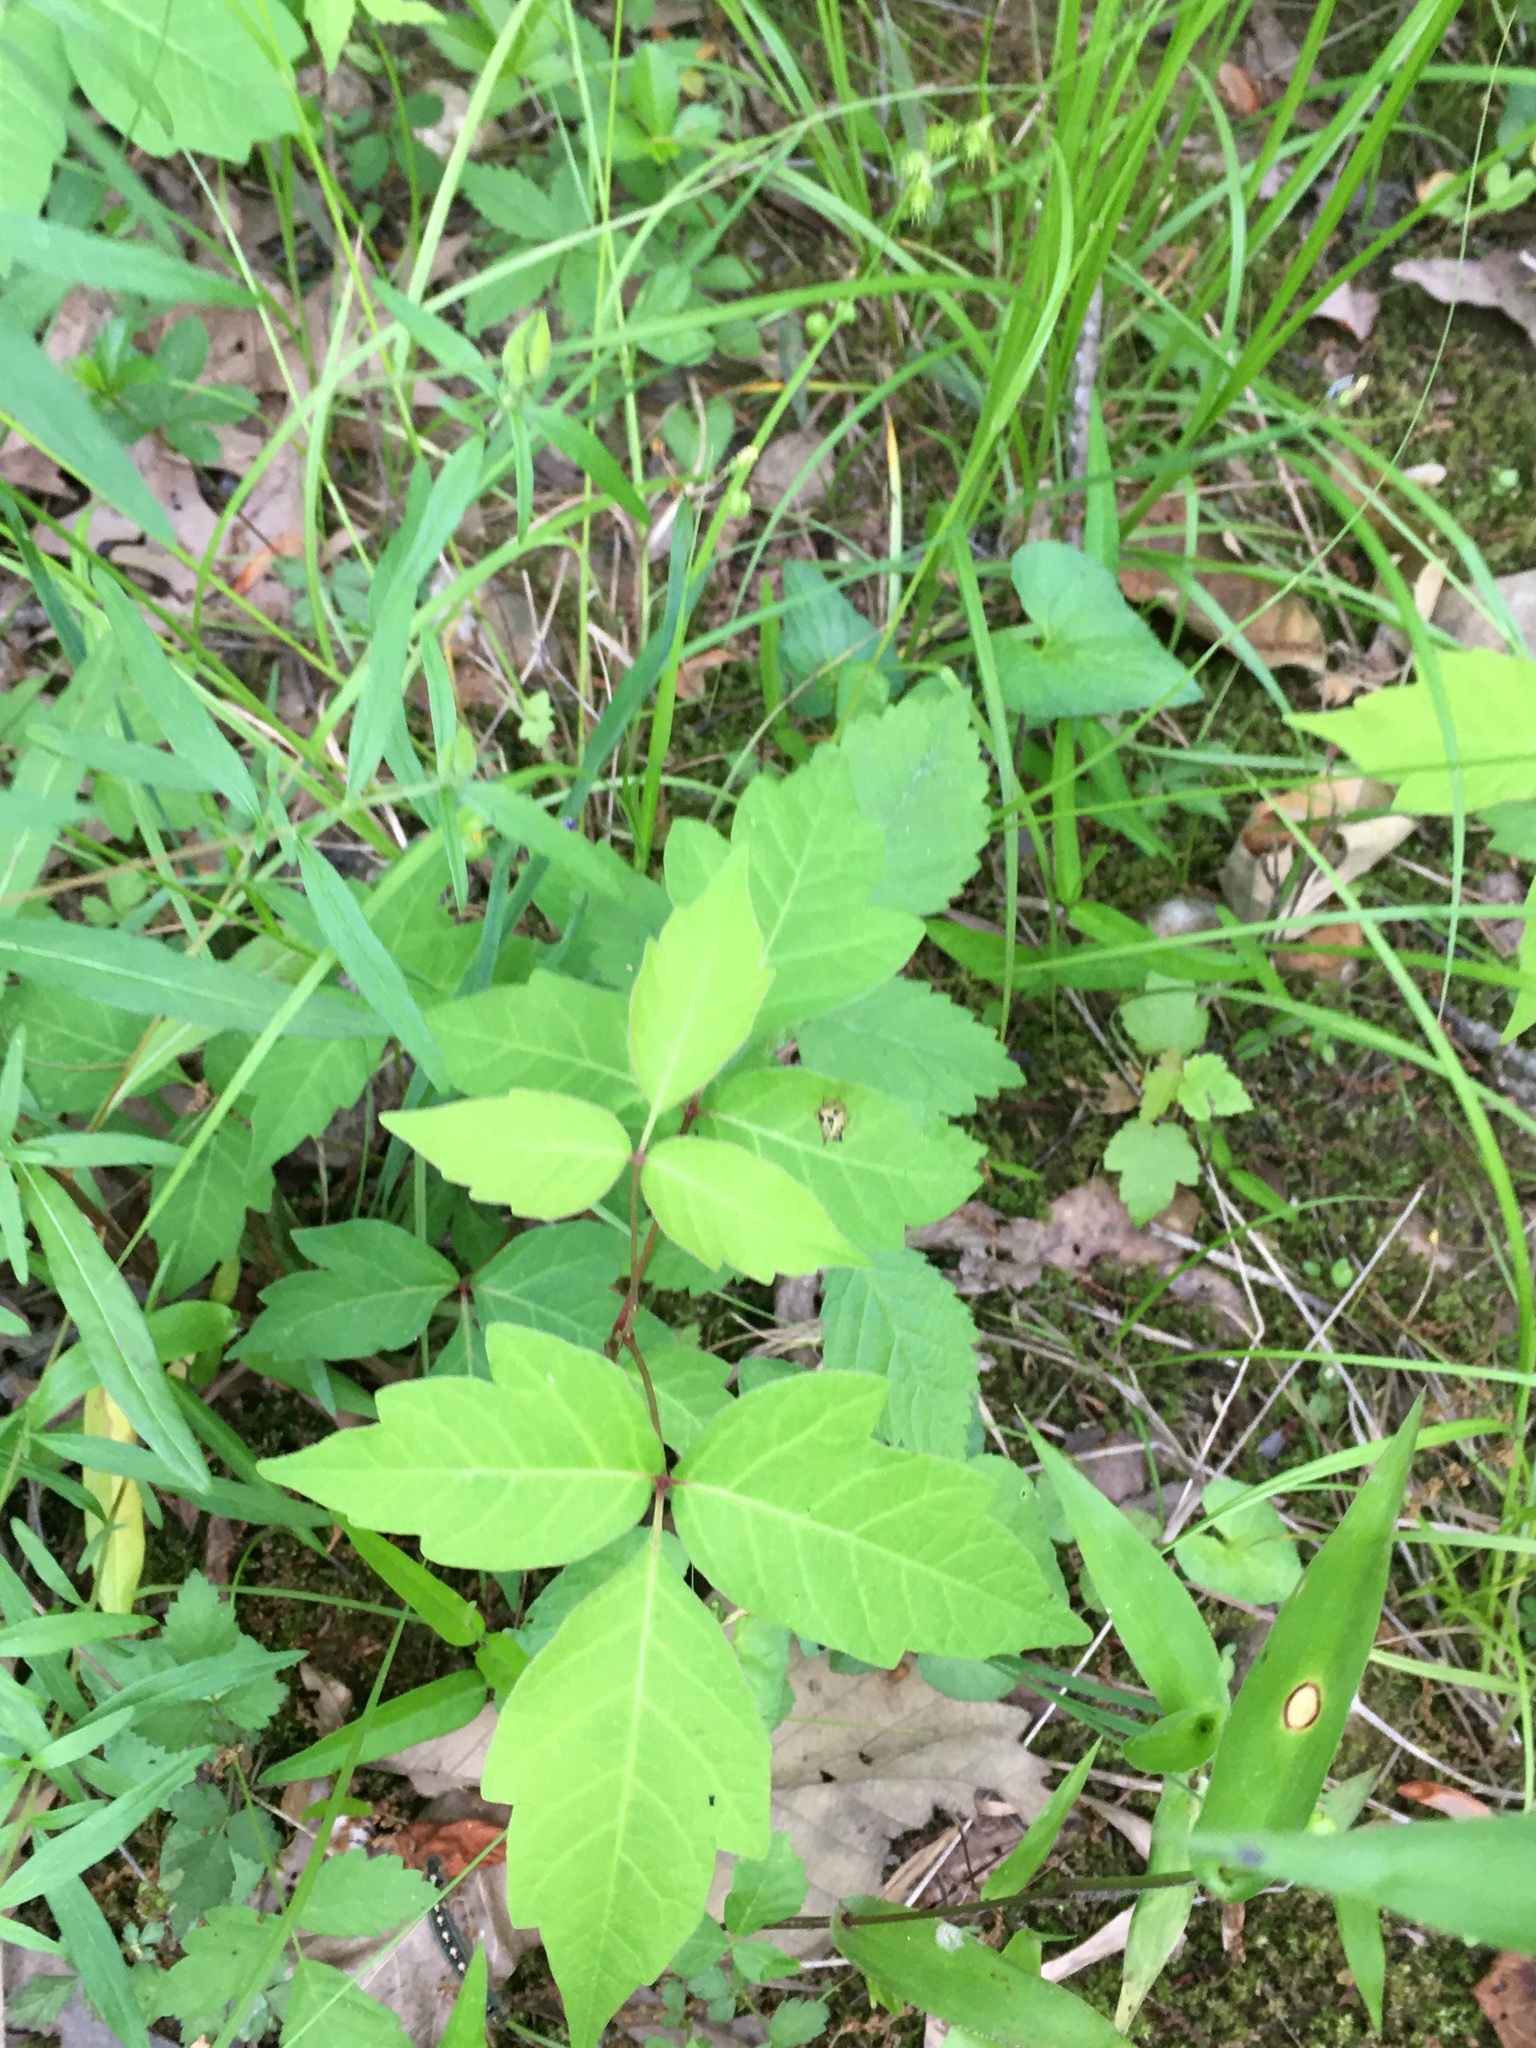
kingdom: Plantae
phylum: Tracheophyta
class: Magnoliopsida
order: Sapindales
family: Anacardiaceae
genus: Toxicodendron
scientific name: Toxicodendron radicans
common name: Poison ivy
